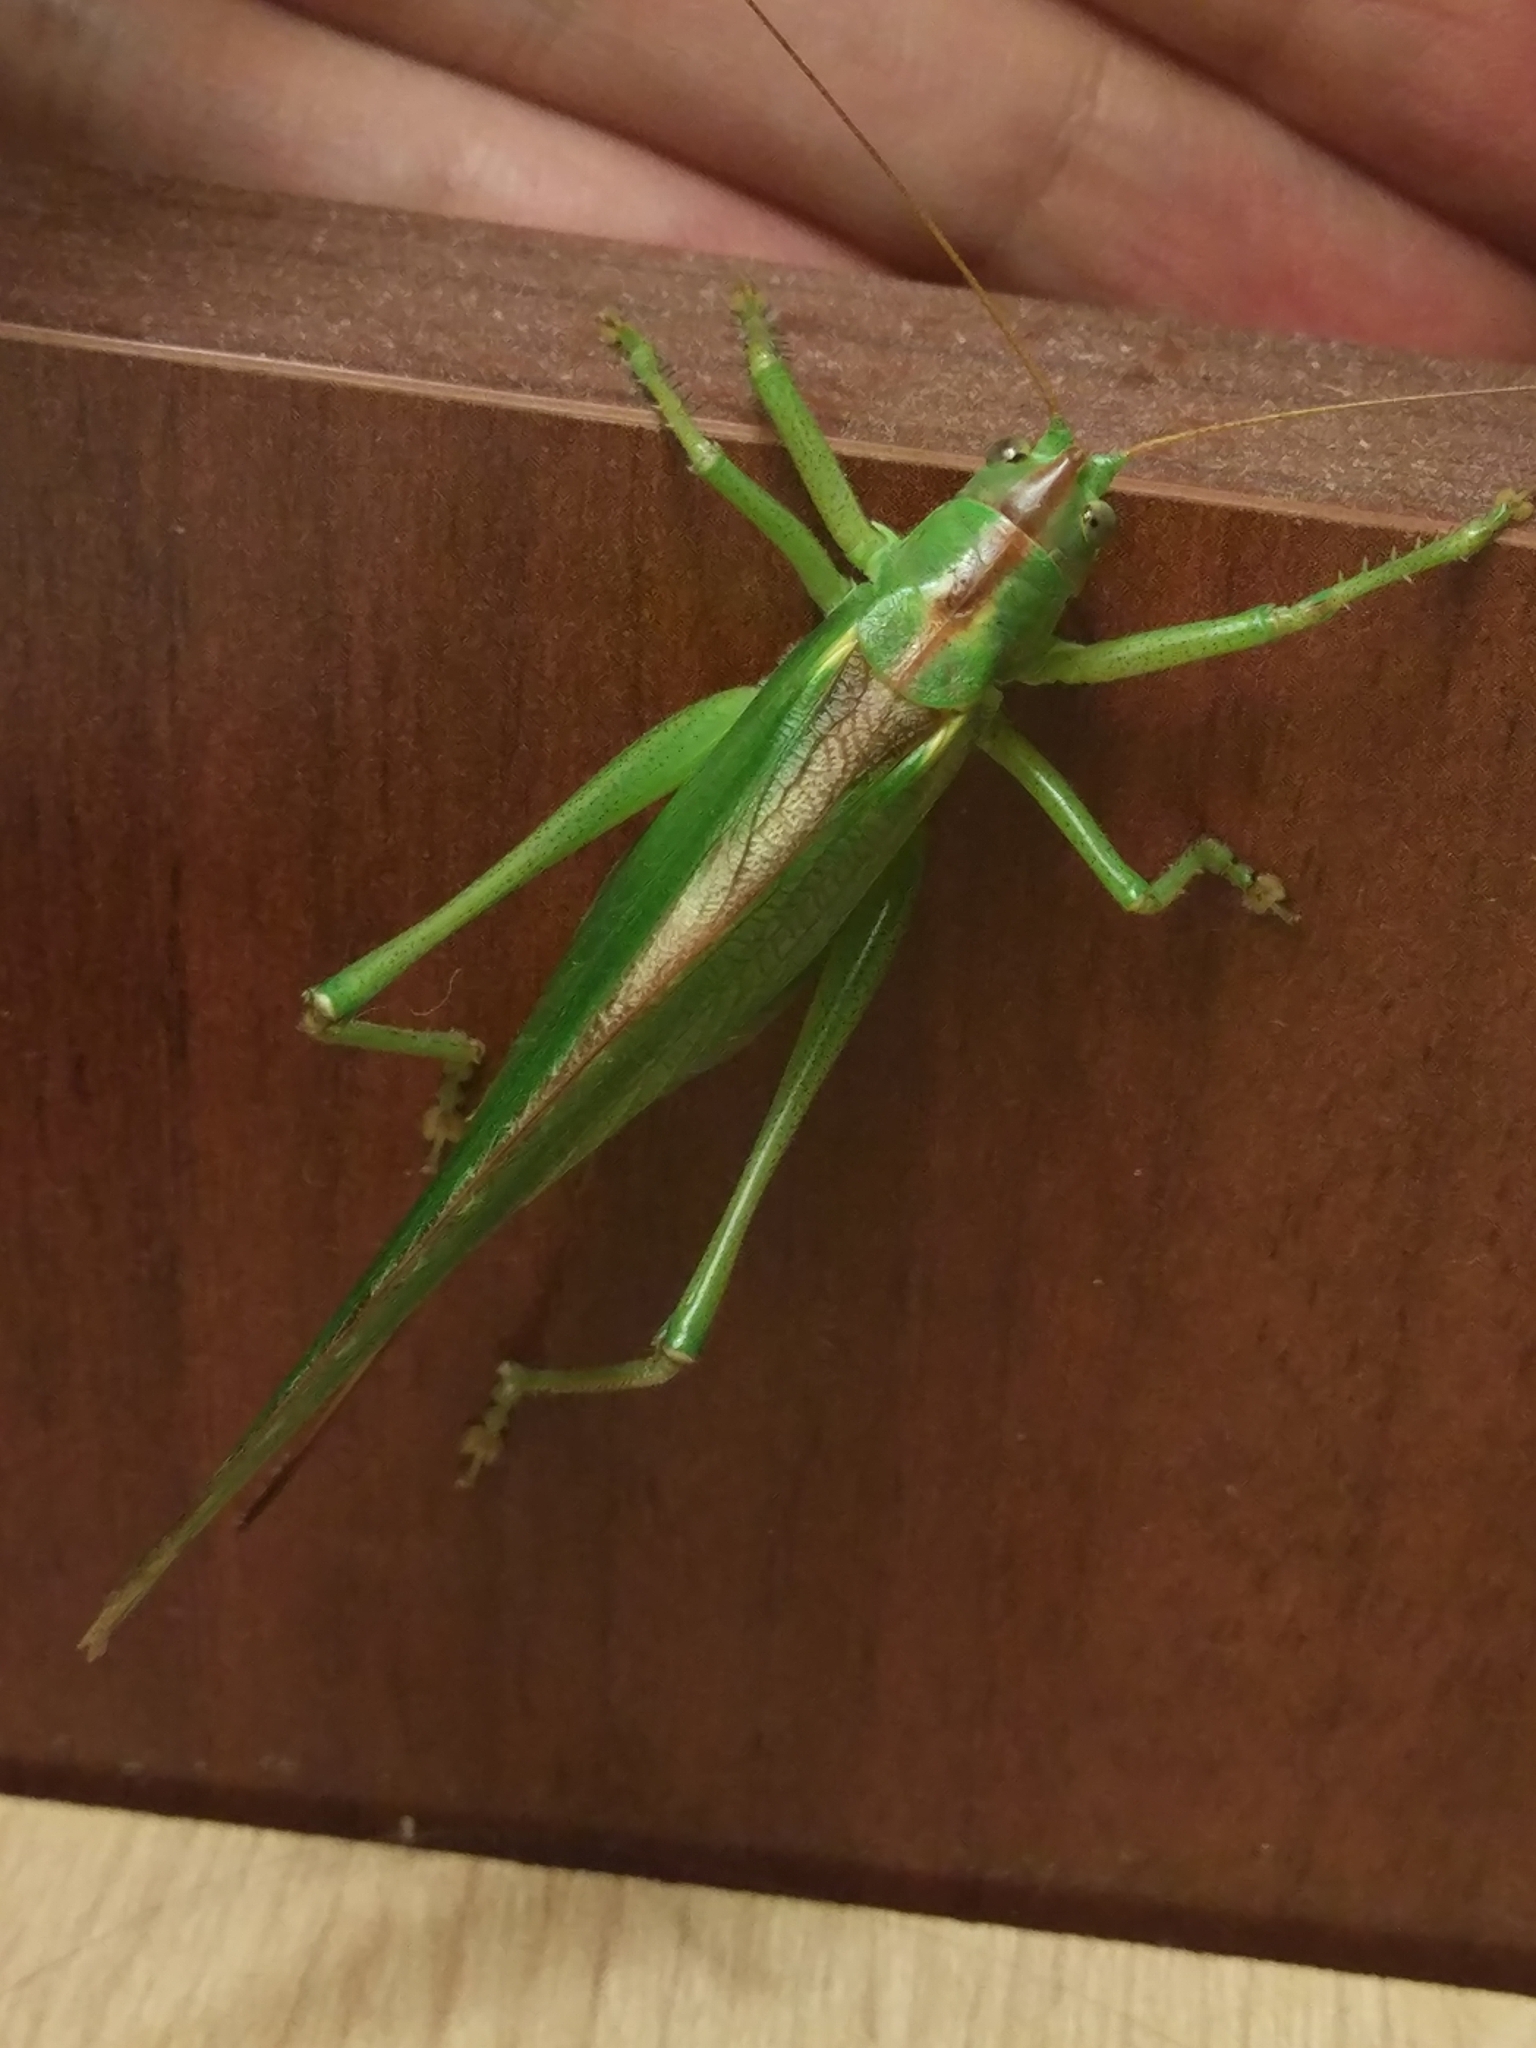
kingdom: Animalia
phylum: Arthropoda
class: Insecta
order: Orthoptera
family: Tettigoniidae
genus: Tettigonia
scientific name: Tettigonia viridissima
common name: Great green bush-cricket
